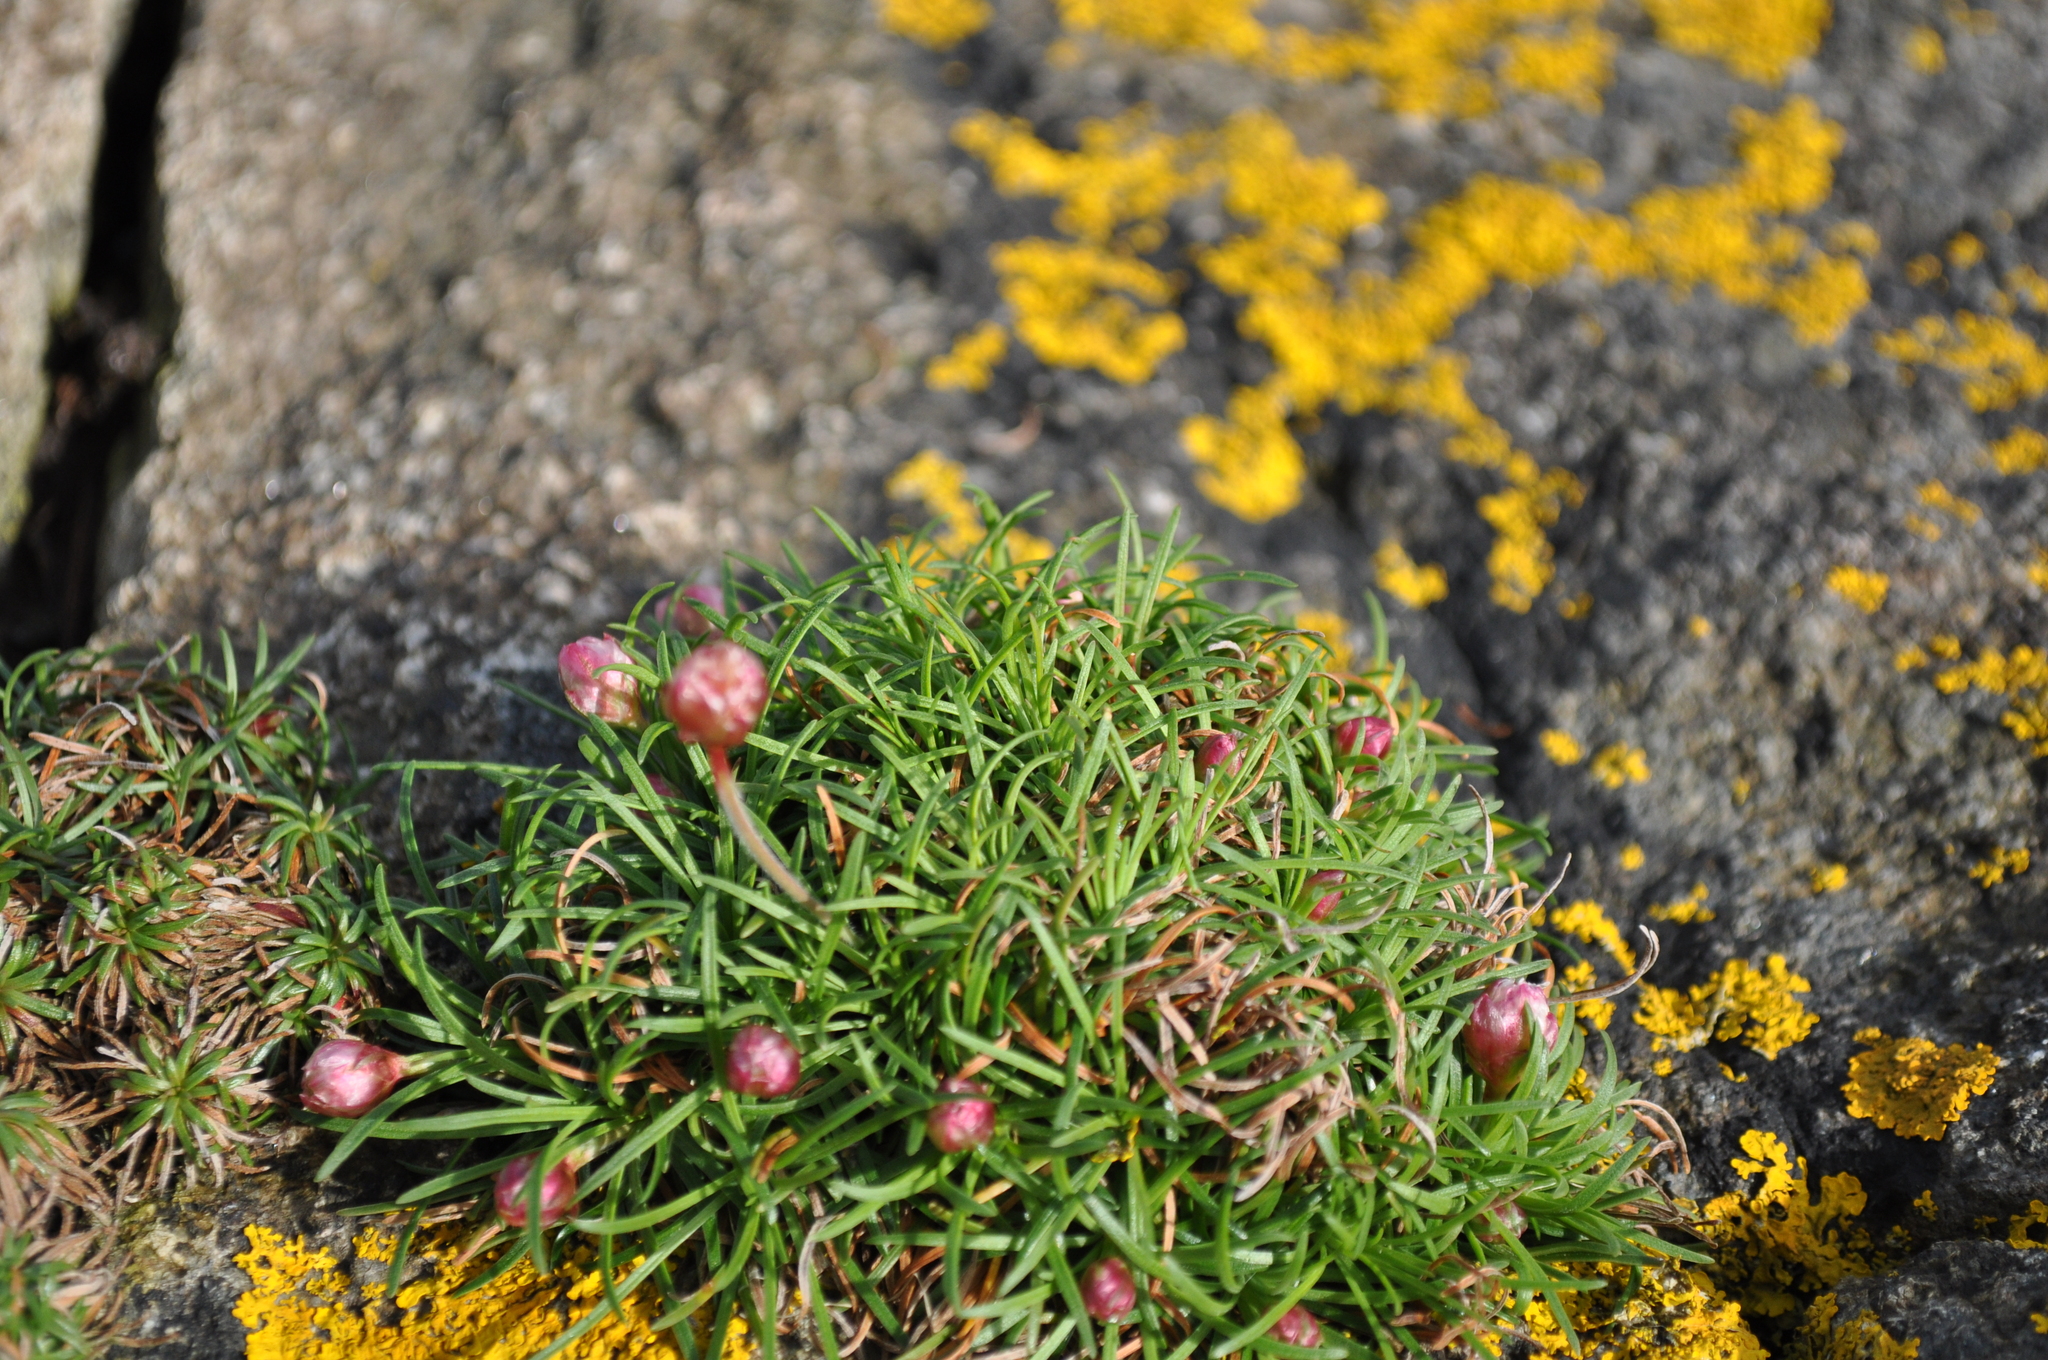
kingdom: Plantae
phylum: Tracheophyta
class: Magnoliopsida
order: Caryophyllales
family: Plumbaginaceae
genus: Armeria
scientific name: Armeria maritima
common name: Thrift
